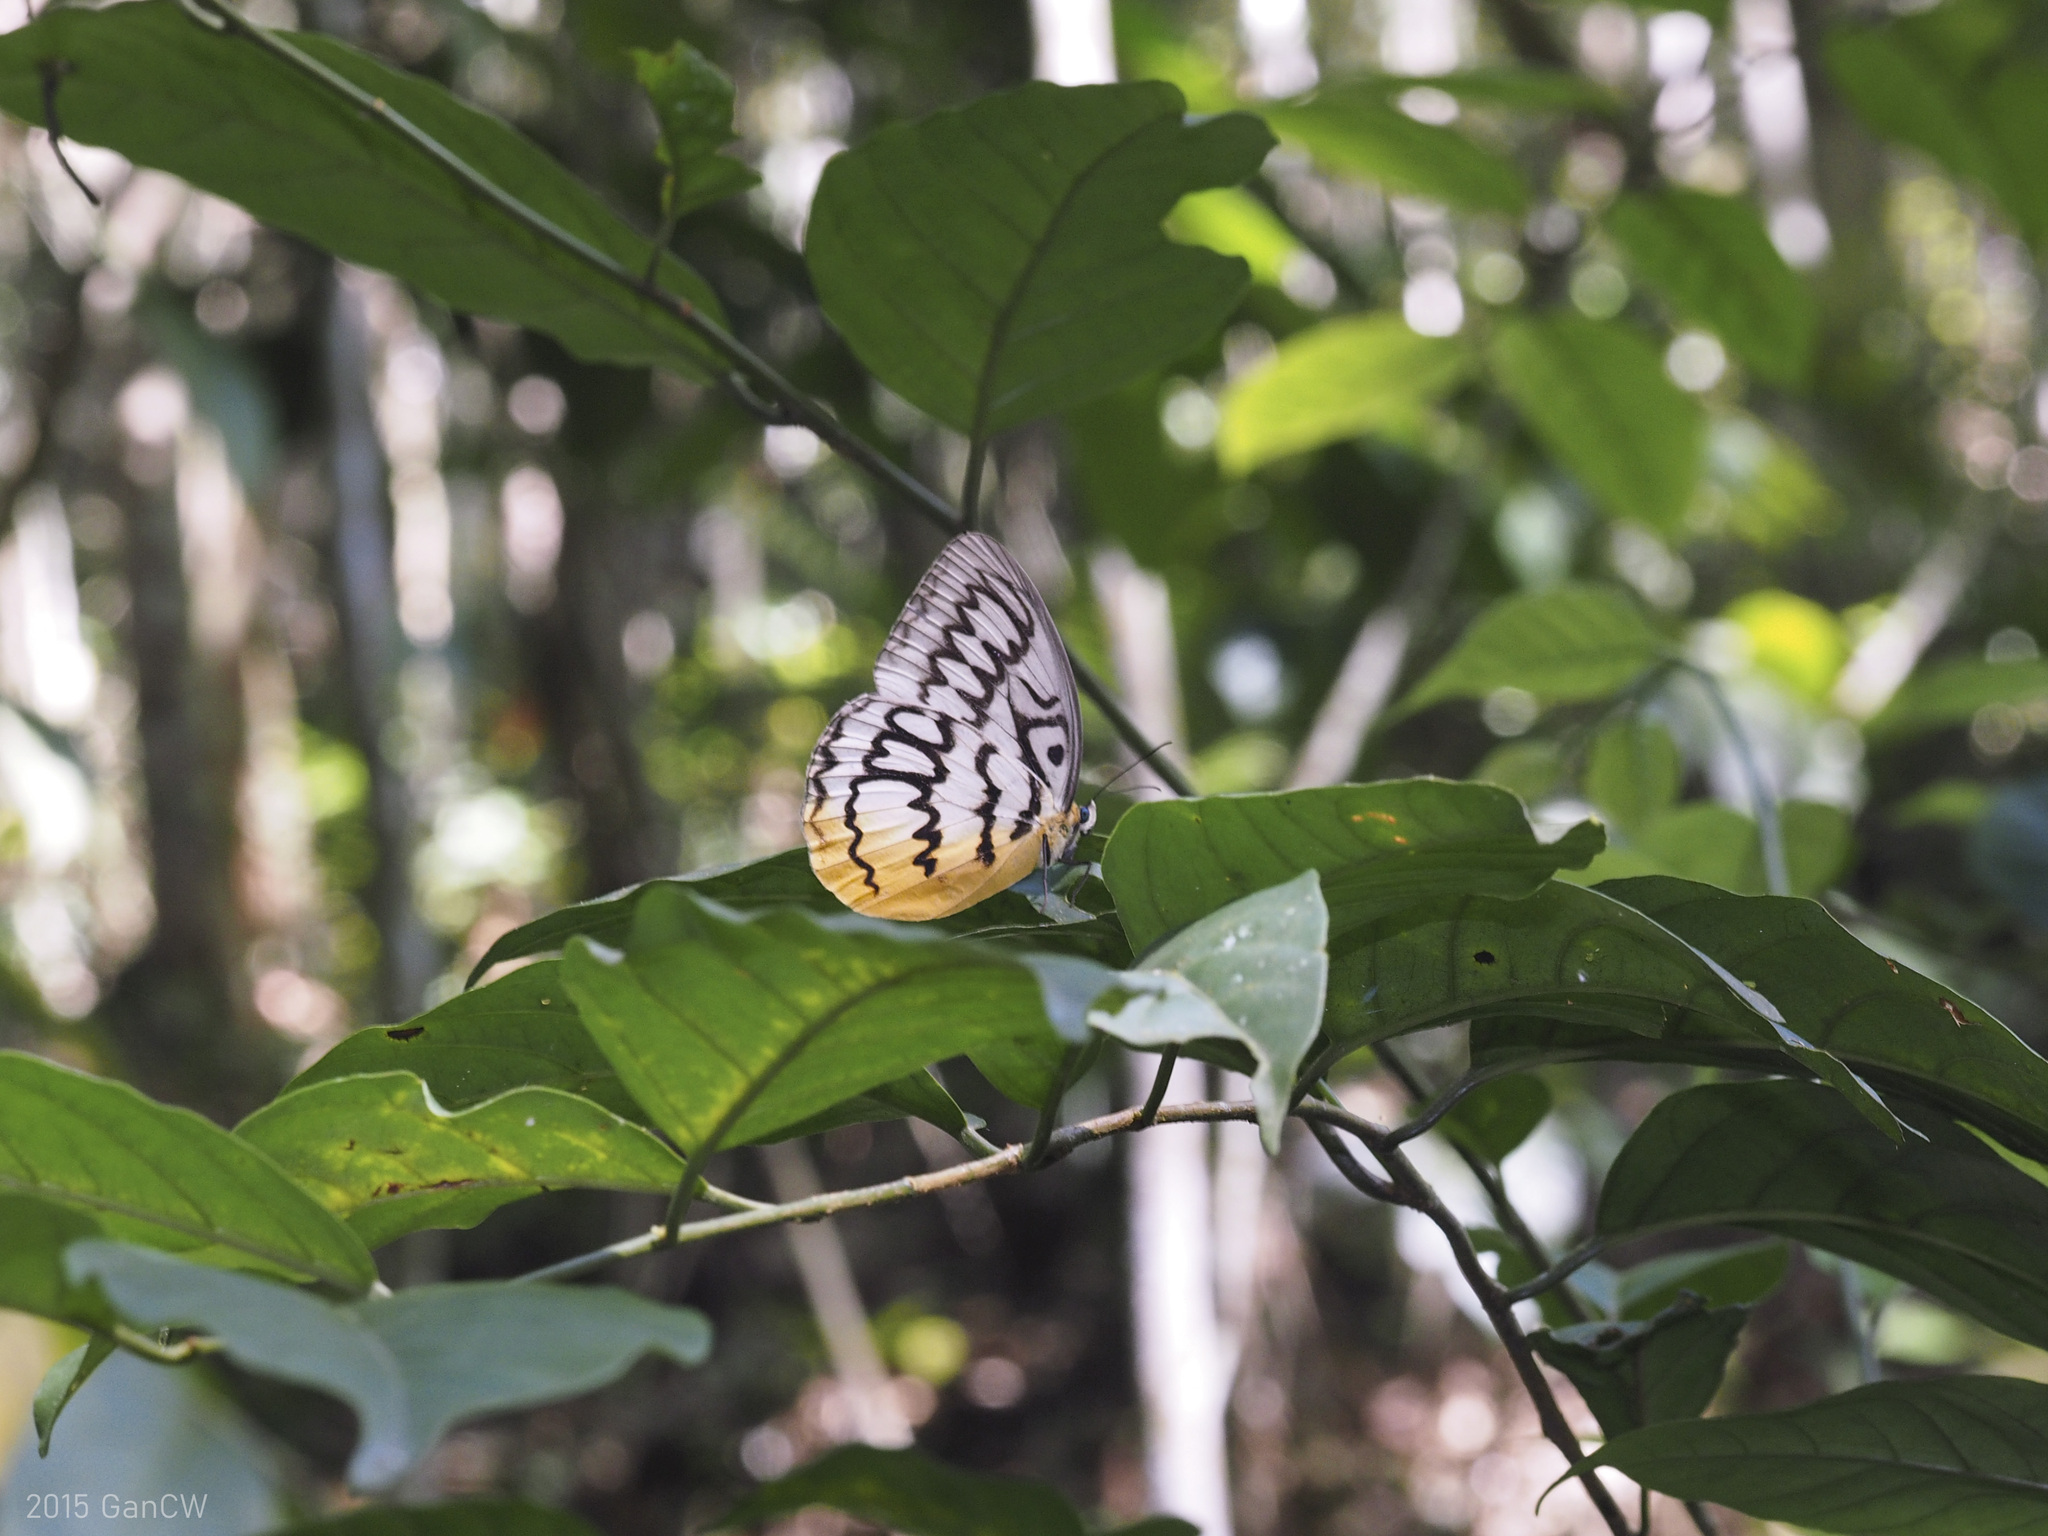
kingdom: Animalia
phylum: Arthropoda
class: Insecta
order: Lepidoptera
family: Nymphalidae
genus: Faunis
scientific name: Faunis Melanocyma faunula
